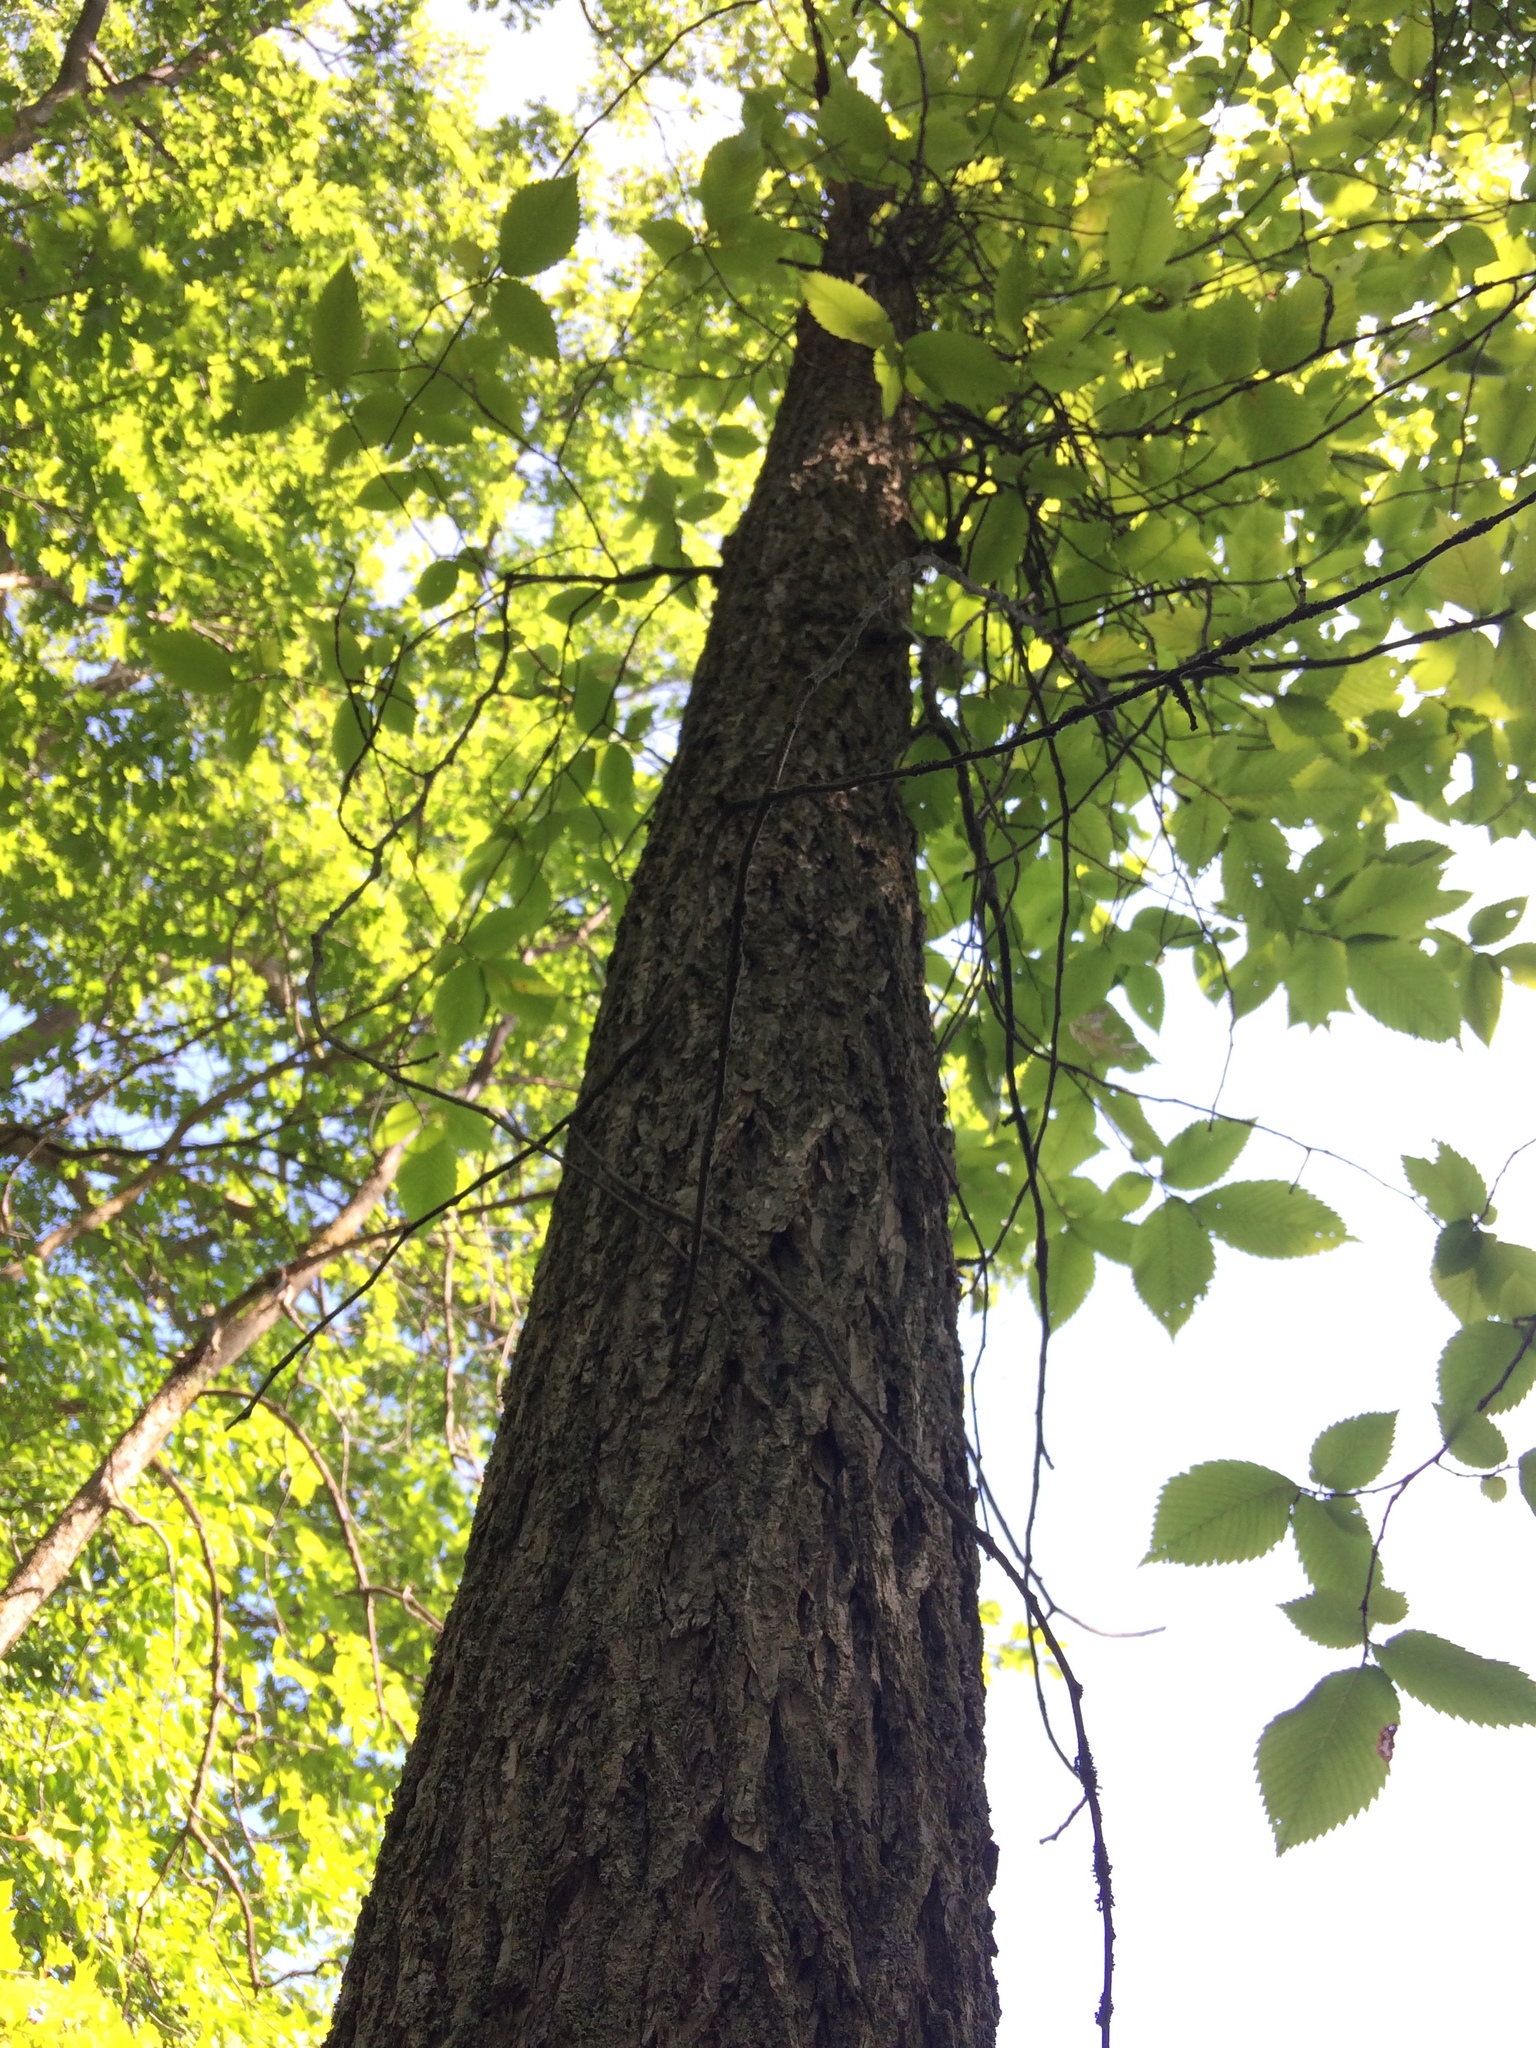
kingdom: Plantae
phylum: Tracheophyta
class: Magnoliopsida
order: Rosales
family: Ulmaceae
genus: Ulmus
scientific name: Ulmus americana
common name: American elm
